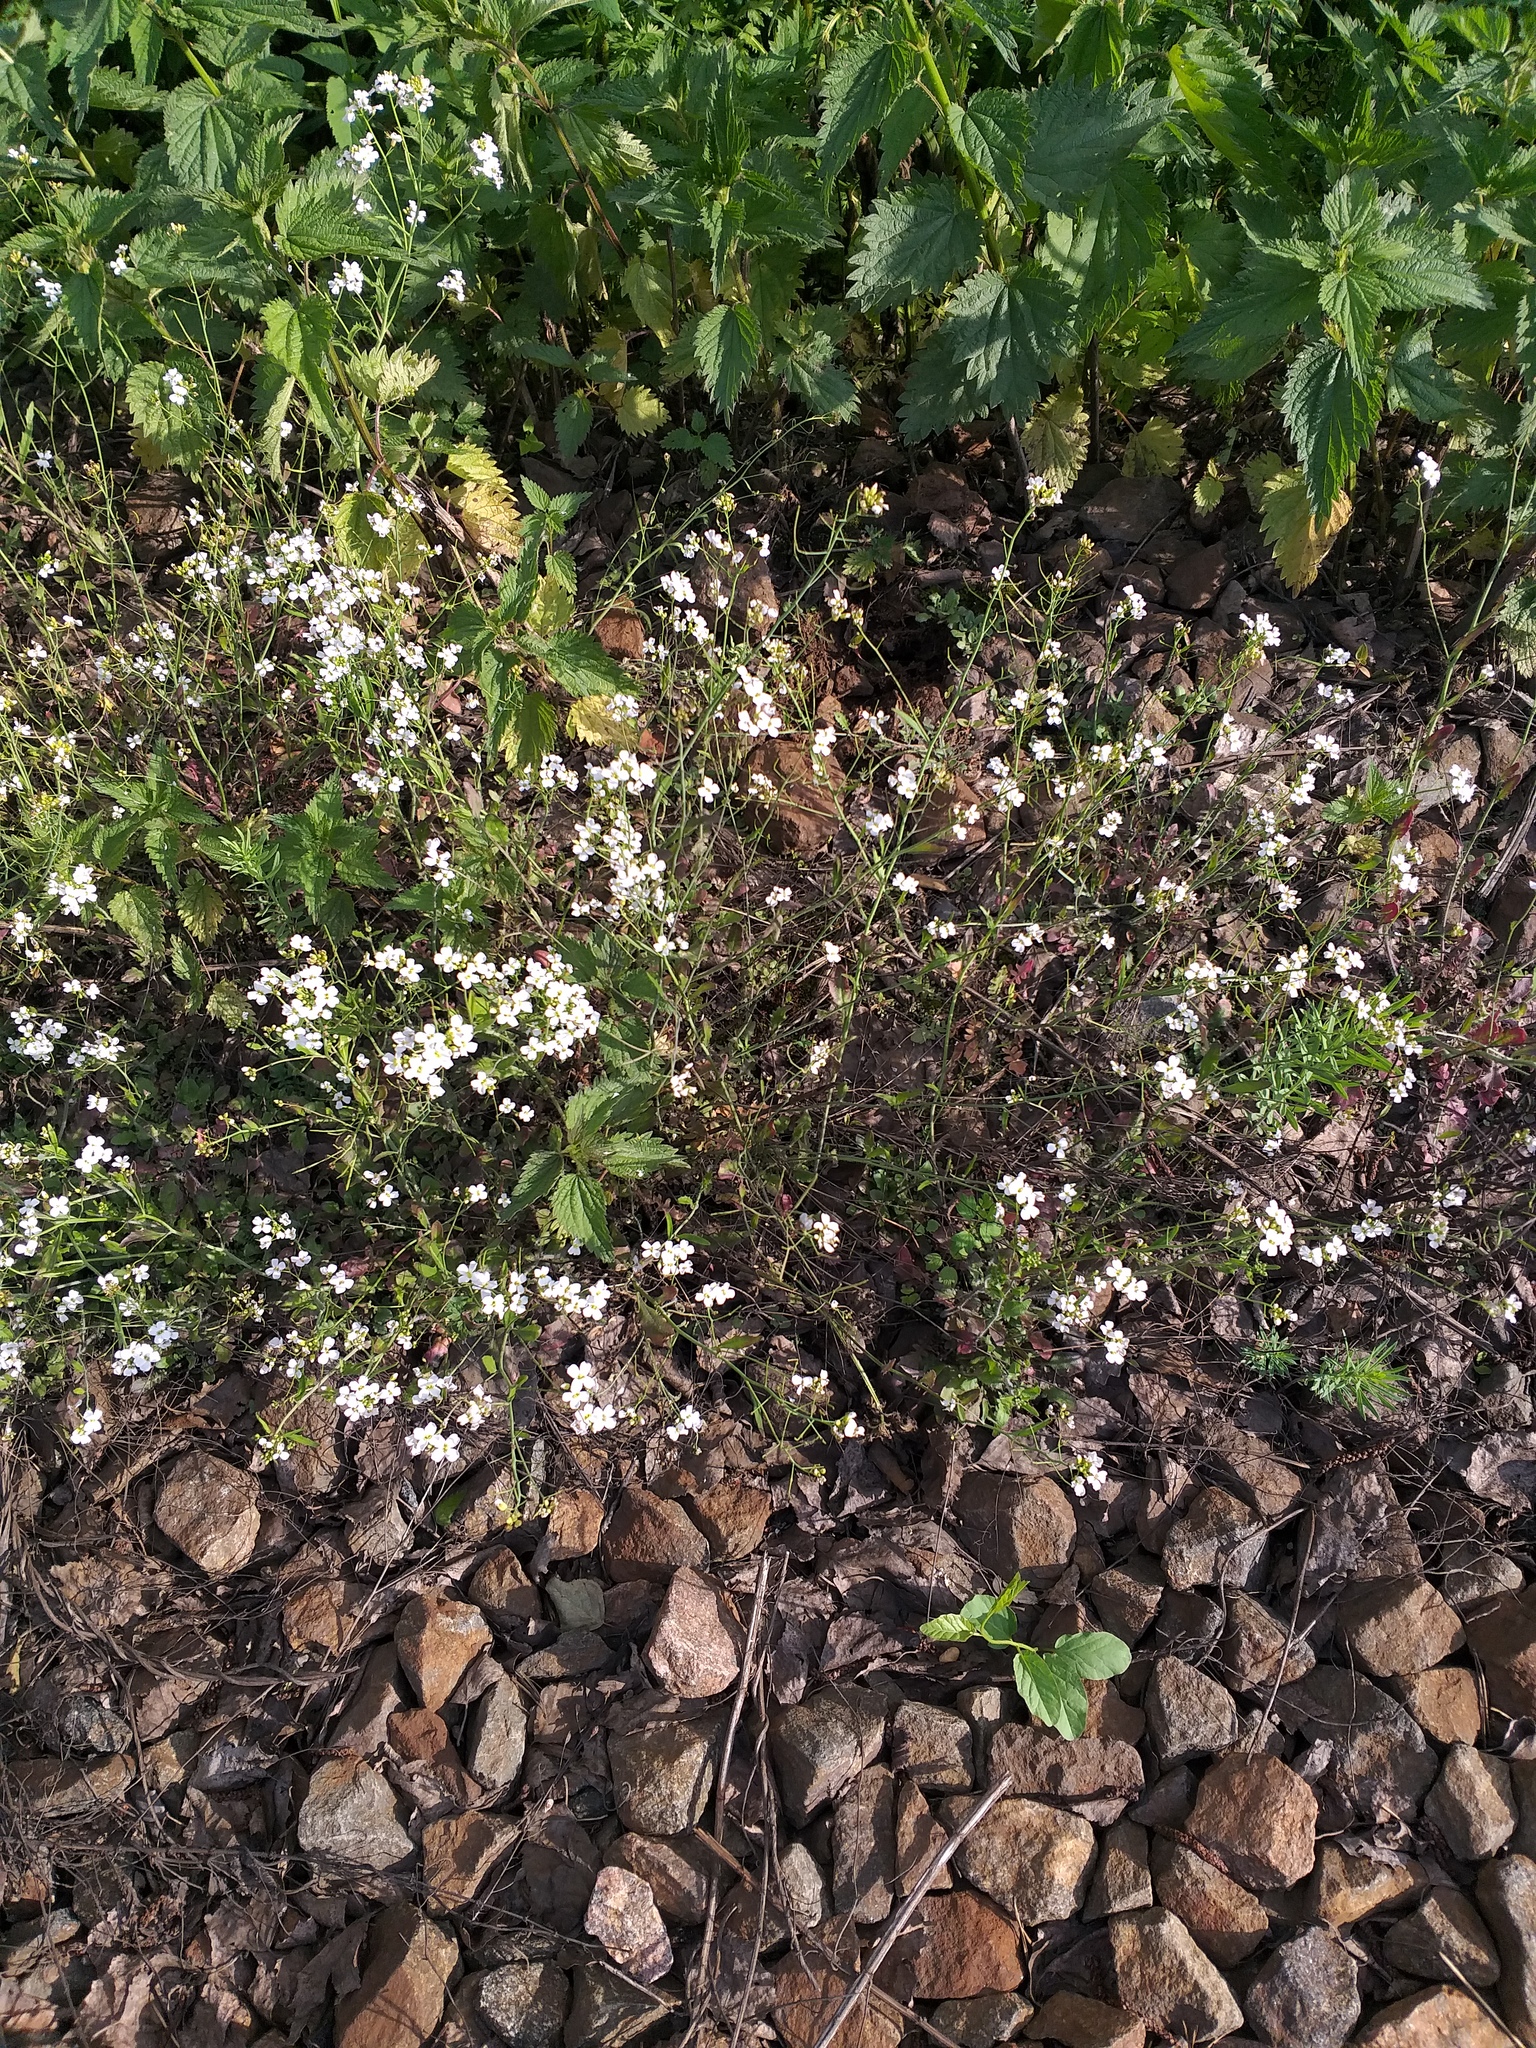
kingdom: Plantae
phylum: Tracheophyta
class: Magnoliopsida
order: Brassicales
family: Brassicaceae
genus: Arabidopsis
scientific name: Arabidopsis arenosa
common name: Sand rock-cress
